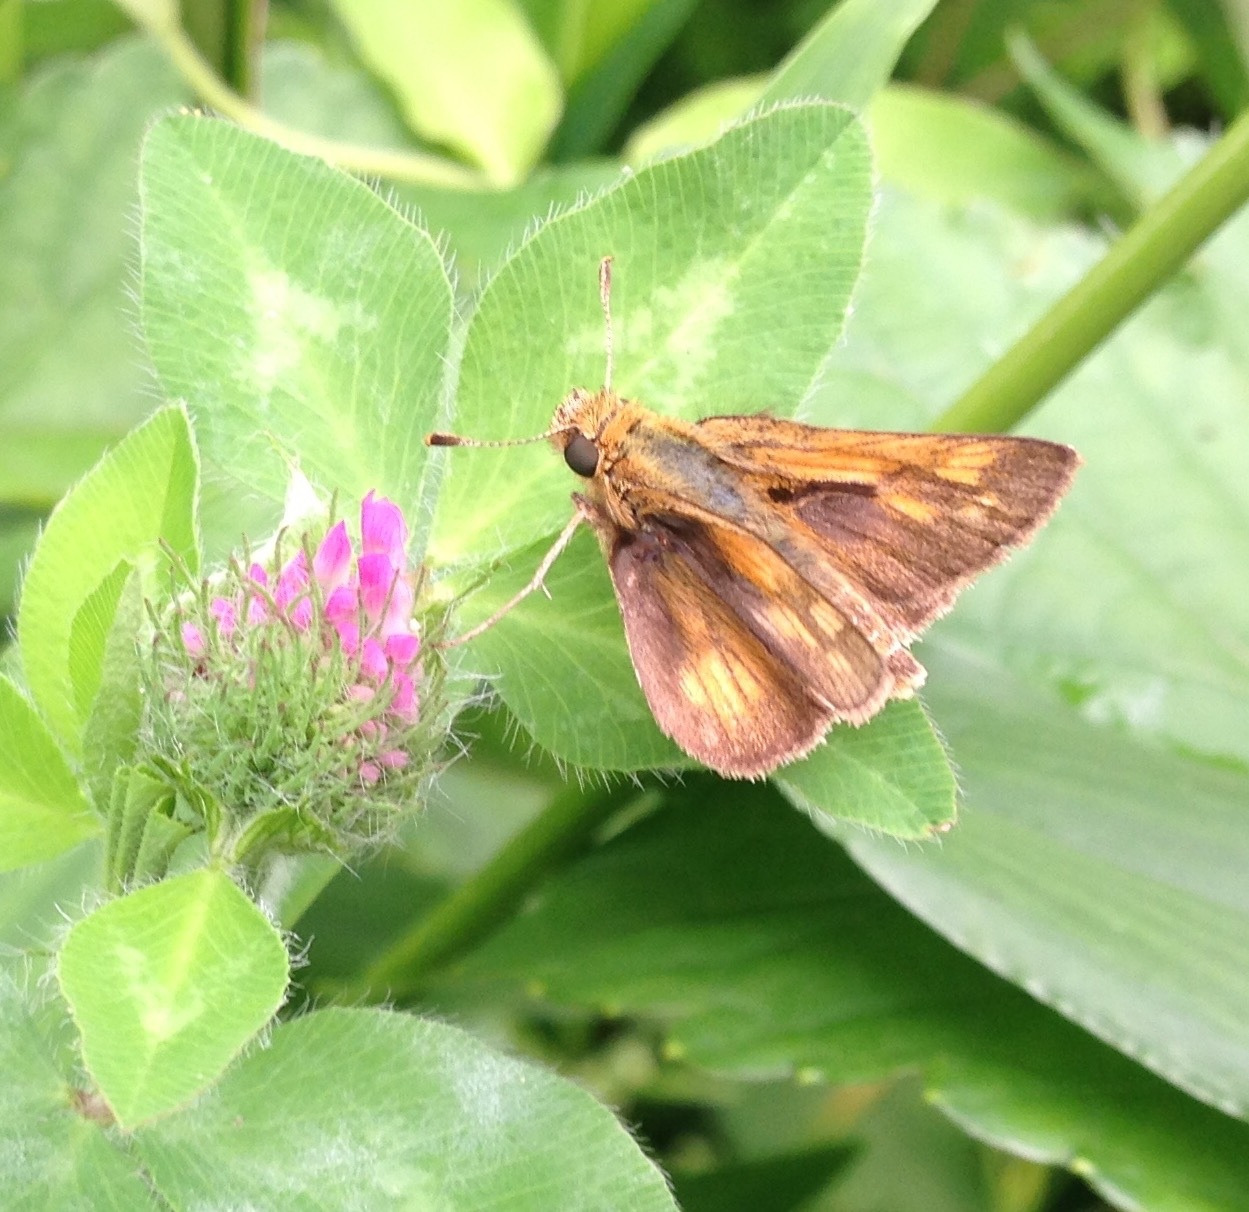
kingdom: Animalia
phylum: Arthropoda
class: Insecta
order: Lepidoptera
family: Hesperiidae
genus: Polites
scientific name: Polites coras
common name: Peck's skipper
